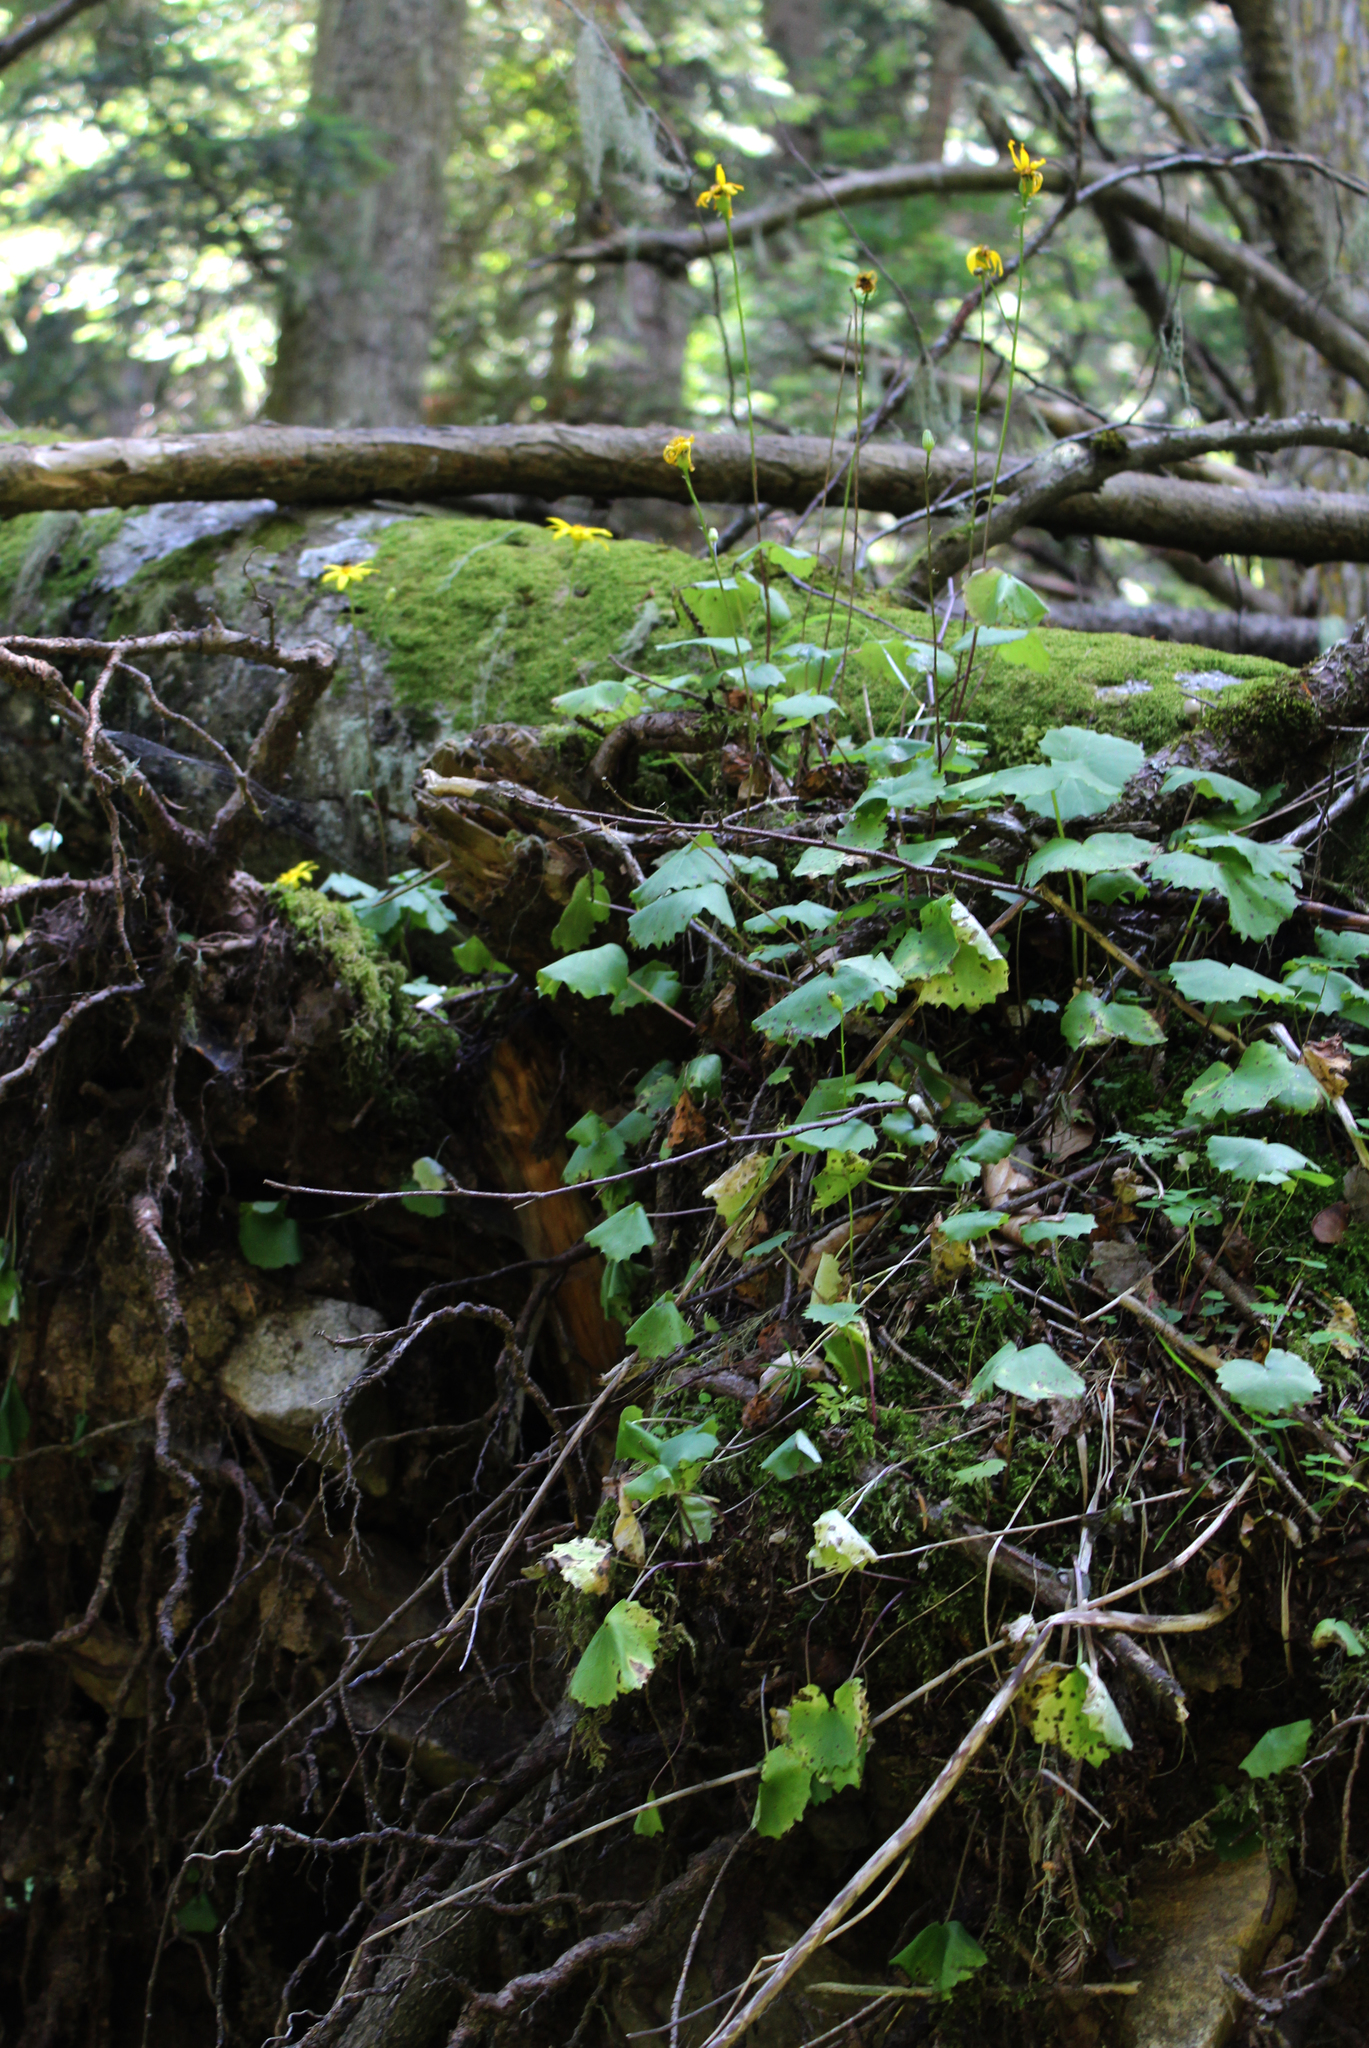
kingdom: Plantae
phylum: Tracheophyta
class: Magnoliopsida
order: Asterales
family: Asteraceae
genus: Dolichorrhiza
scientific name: Dolichorrhiza renifolia
